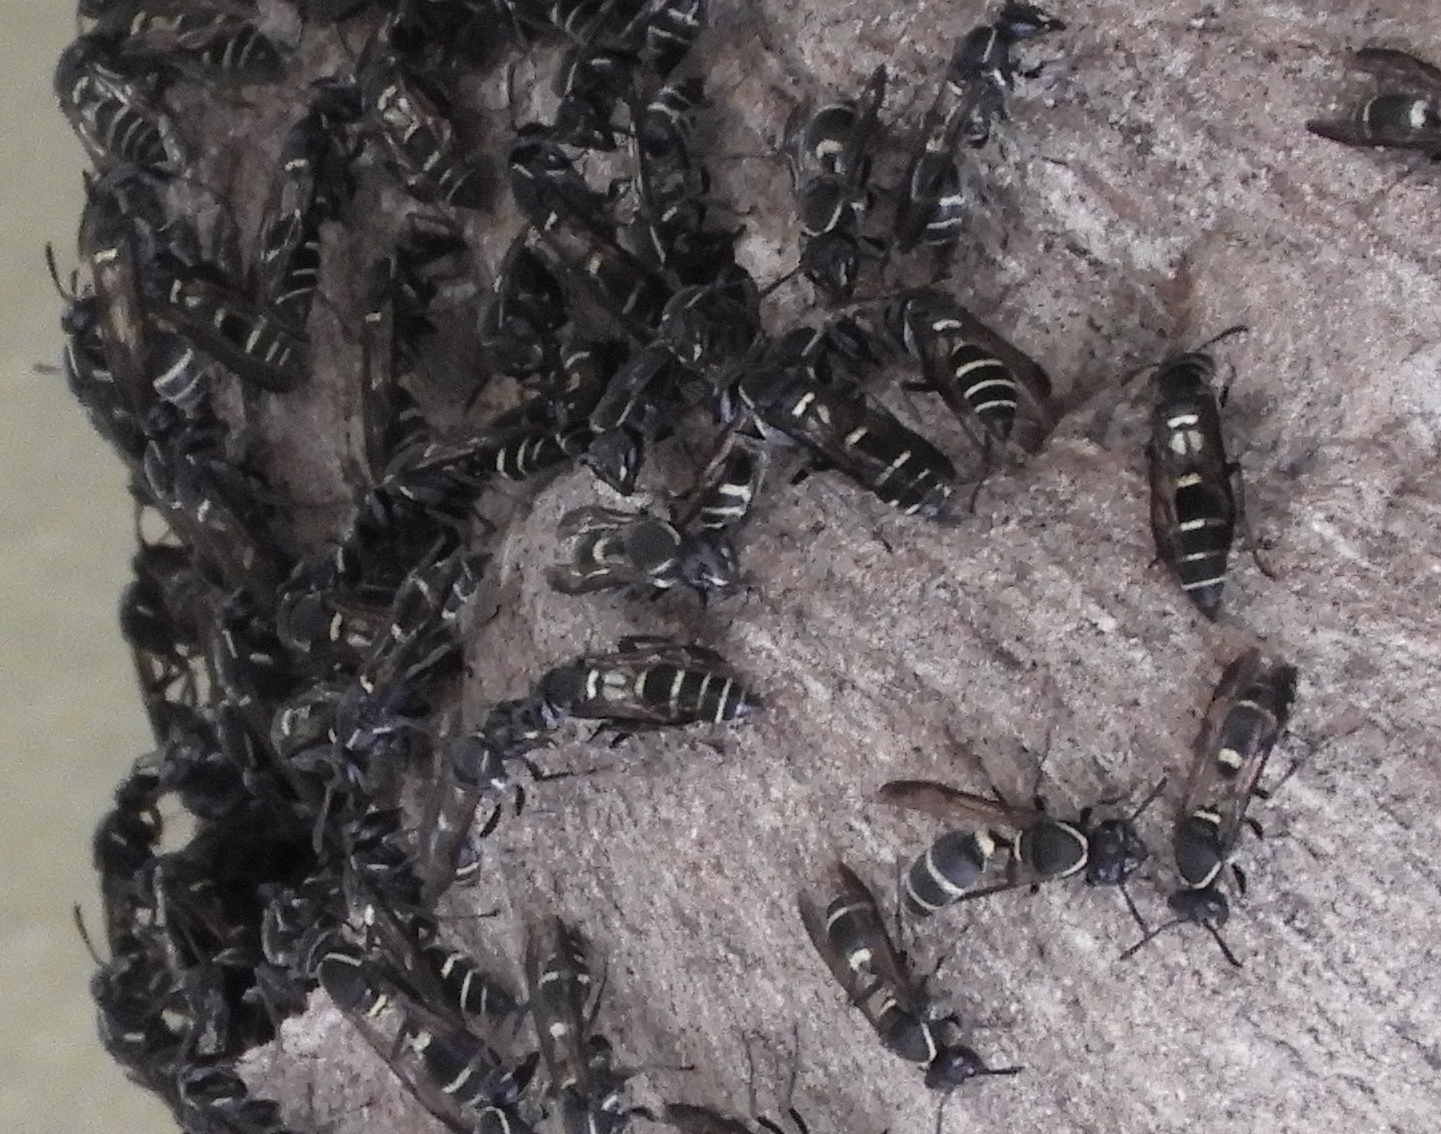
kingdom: Animalia
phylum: Arthropoda
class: Insecta
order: Hymenoptera
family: Eumenidae
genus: Polybia
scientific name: Polybia occidentalis
